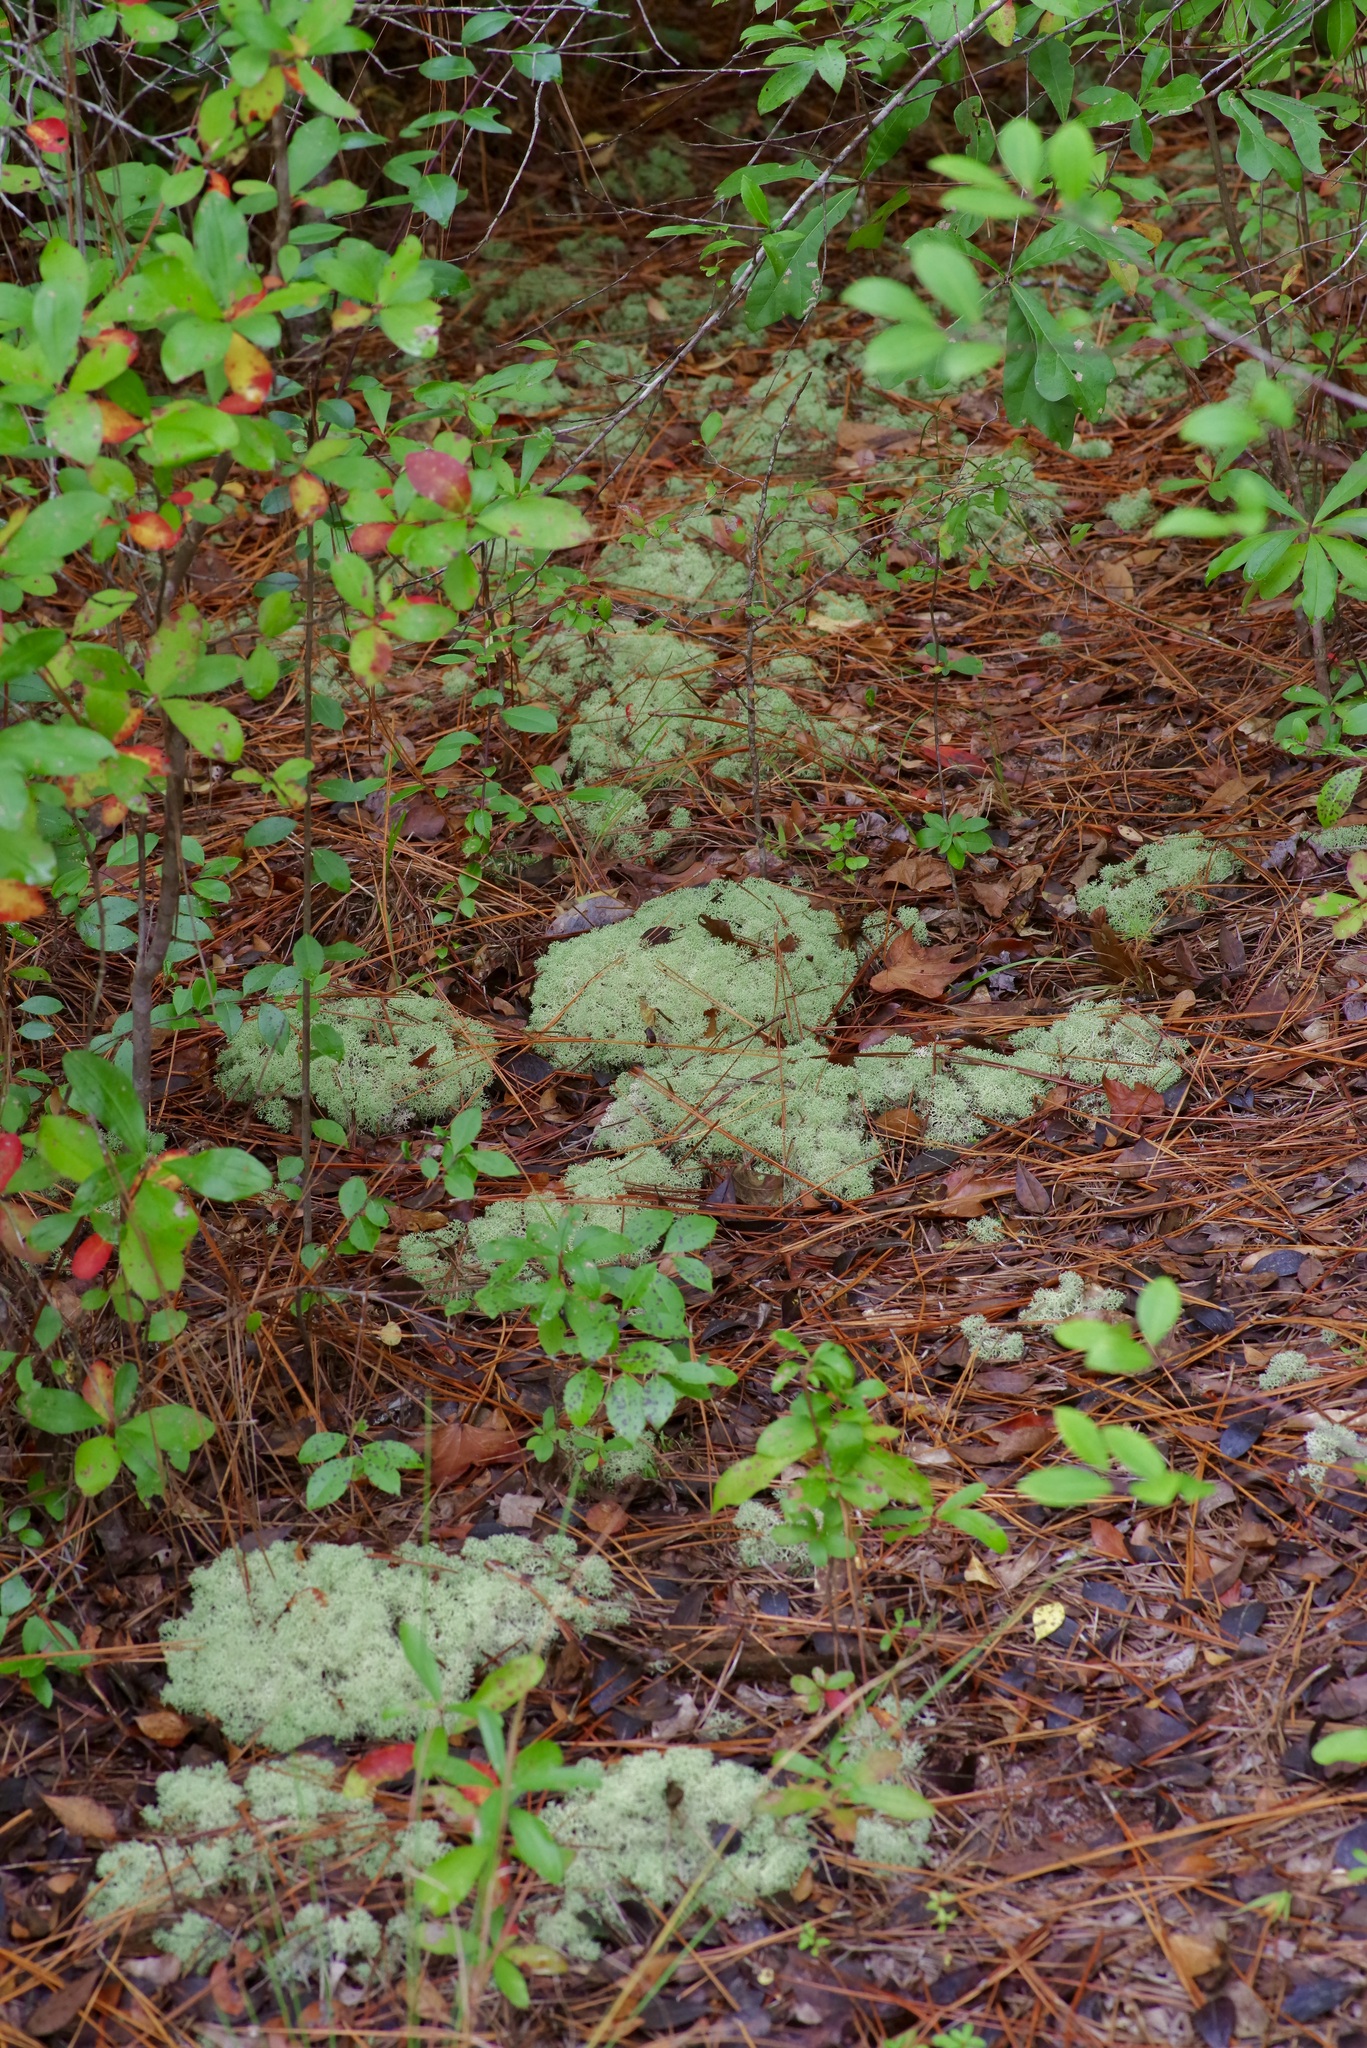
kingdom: Fungi
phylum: Ascomycota
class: Lecanoromycetes
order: Lecanorales
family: Cladoniaceae
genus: Cladonia
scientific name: Cladonia subtenuis
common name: Dixie reindeer lichen
